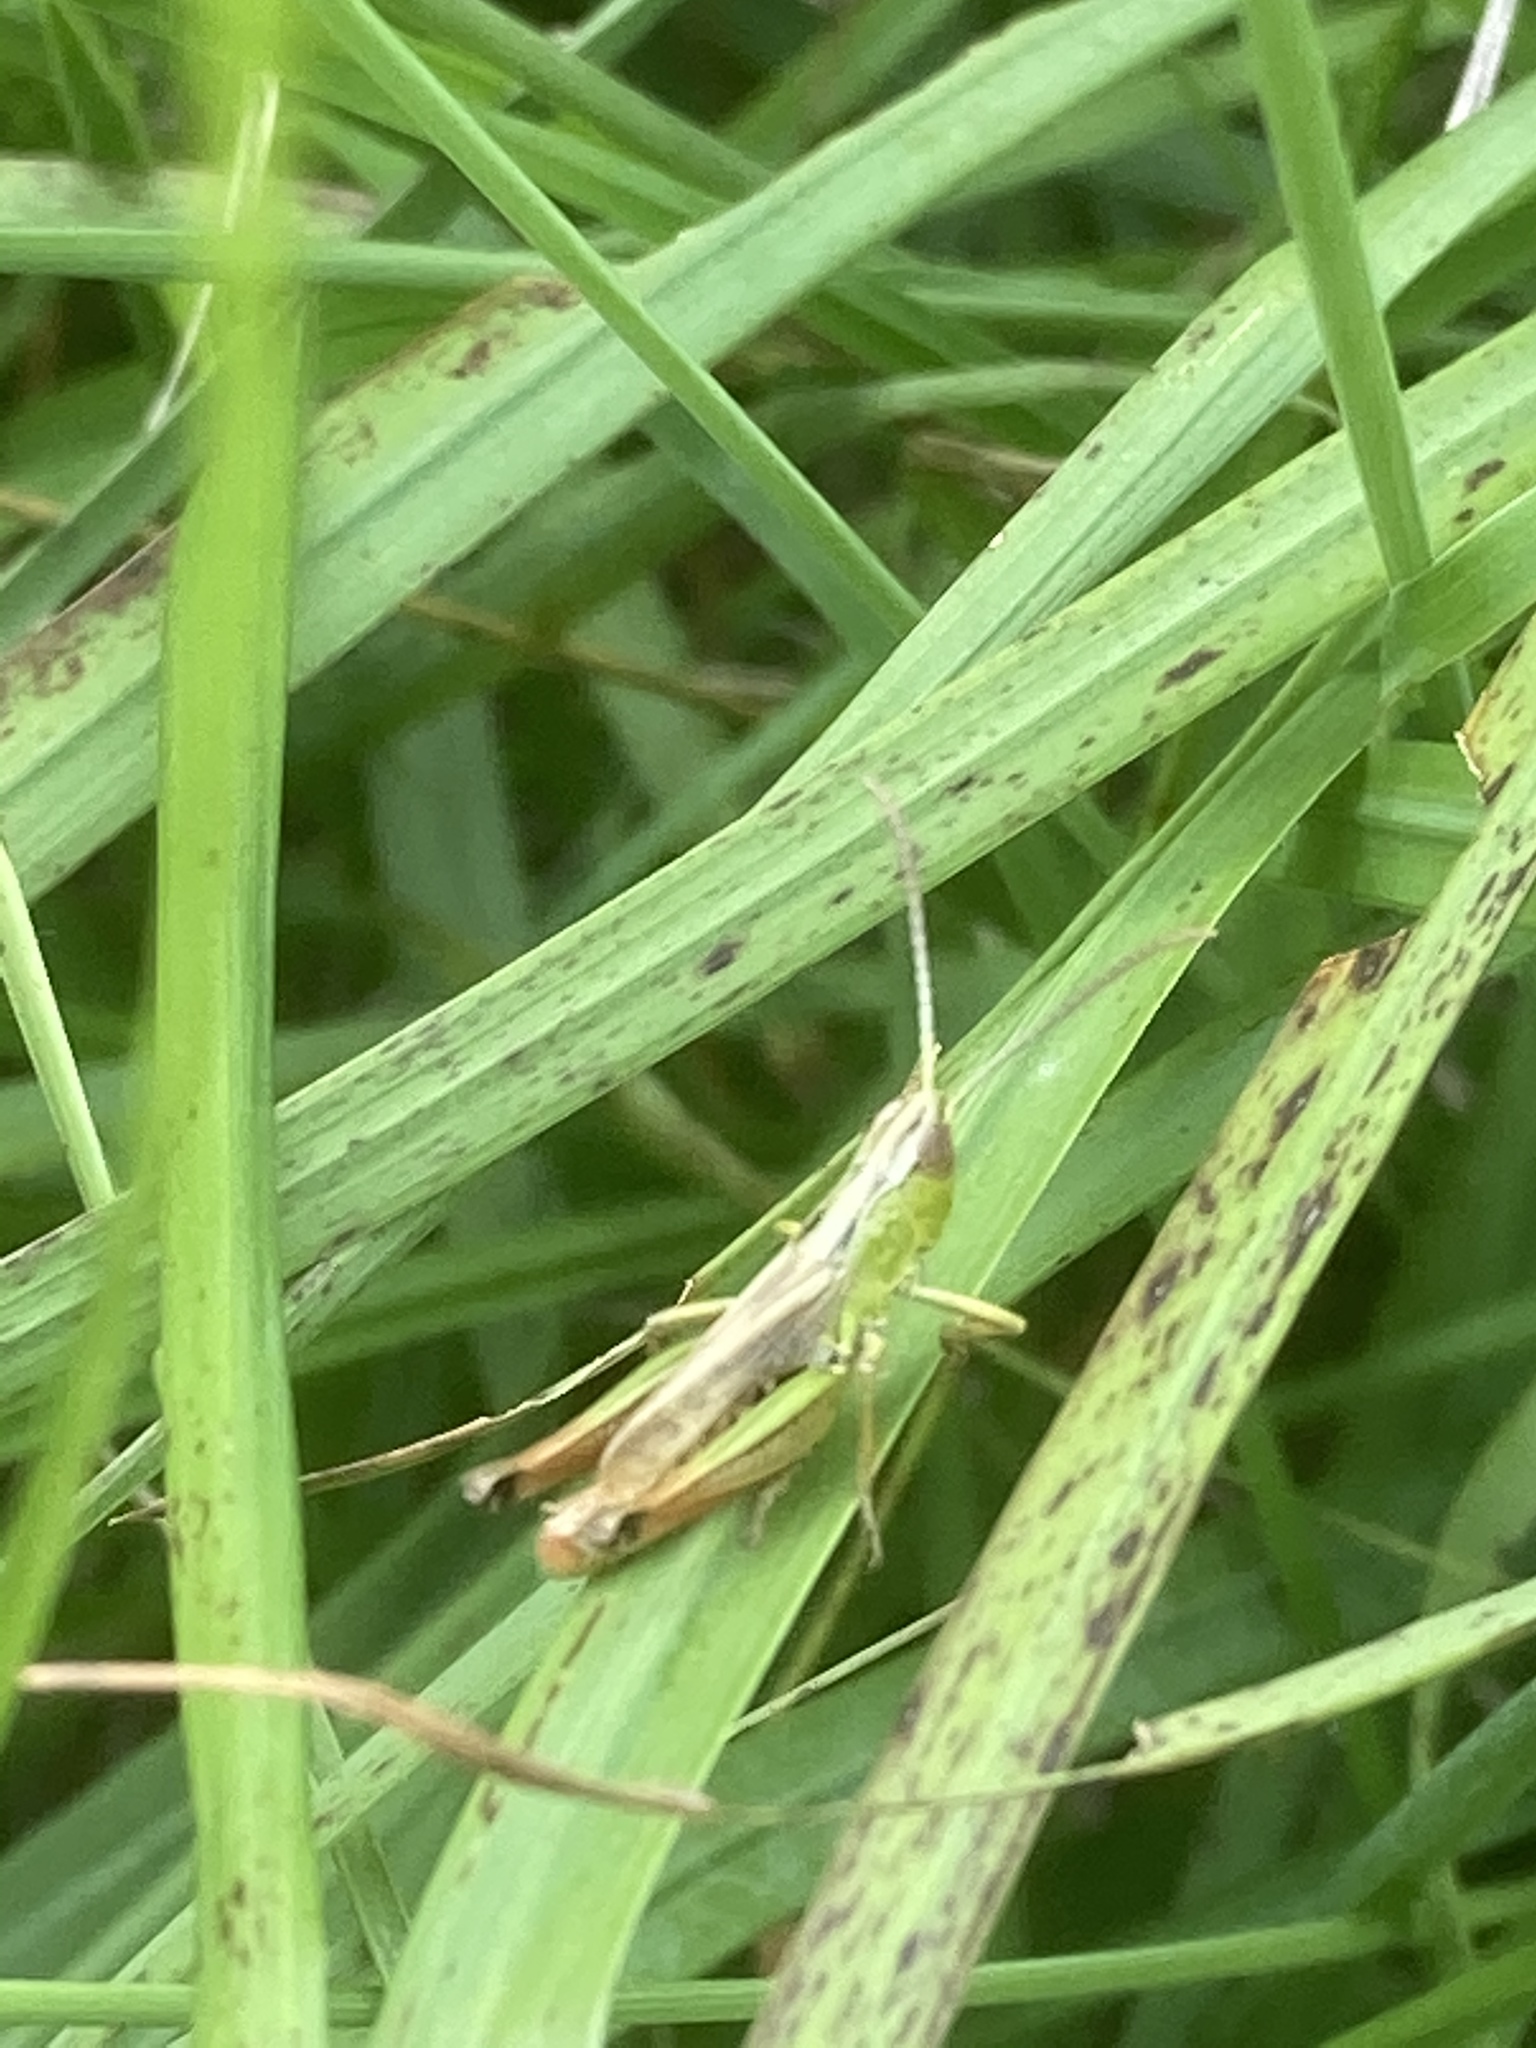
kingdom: Animalia
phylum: Arthropoda
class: Insecta
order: Orthoptera
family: Acrididae
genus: Pseudochorthippus
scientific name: Pseudochorthippus parallelus
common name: Meadow grasshopper
